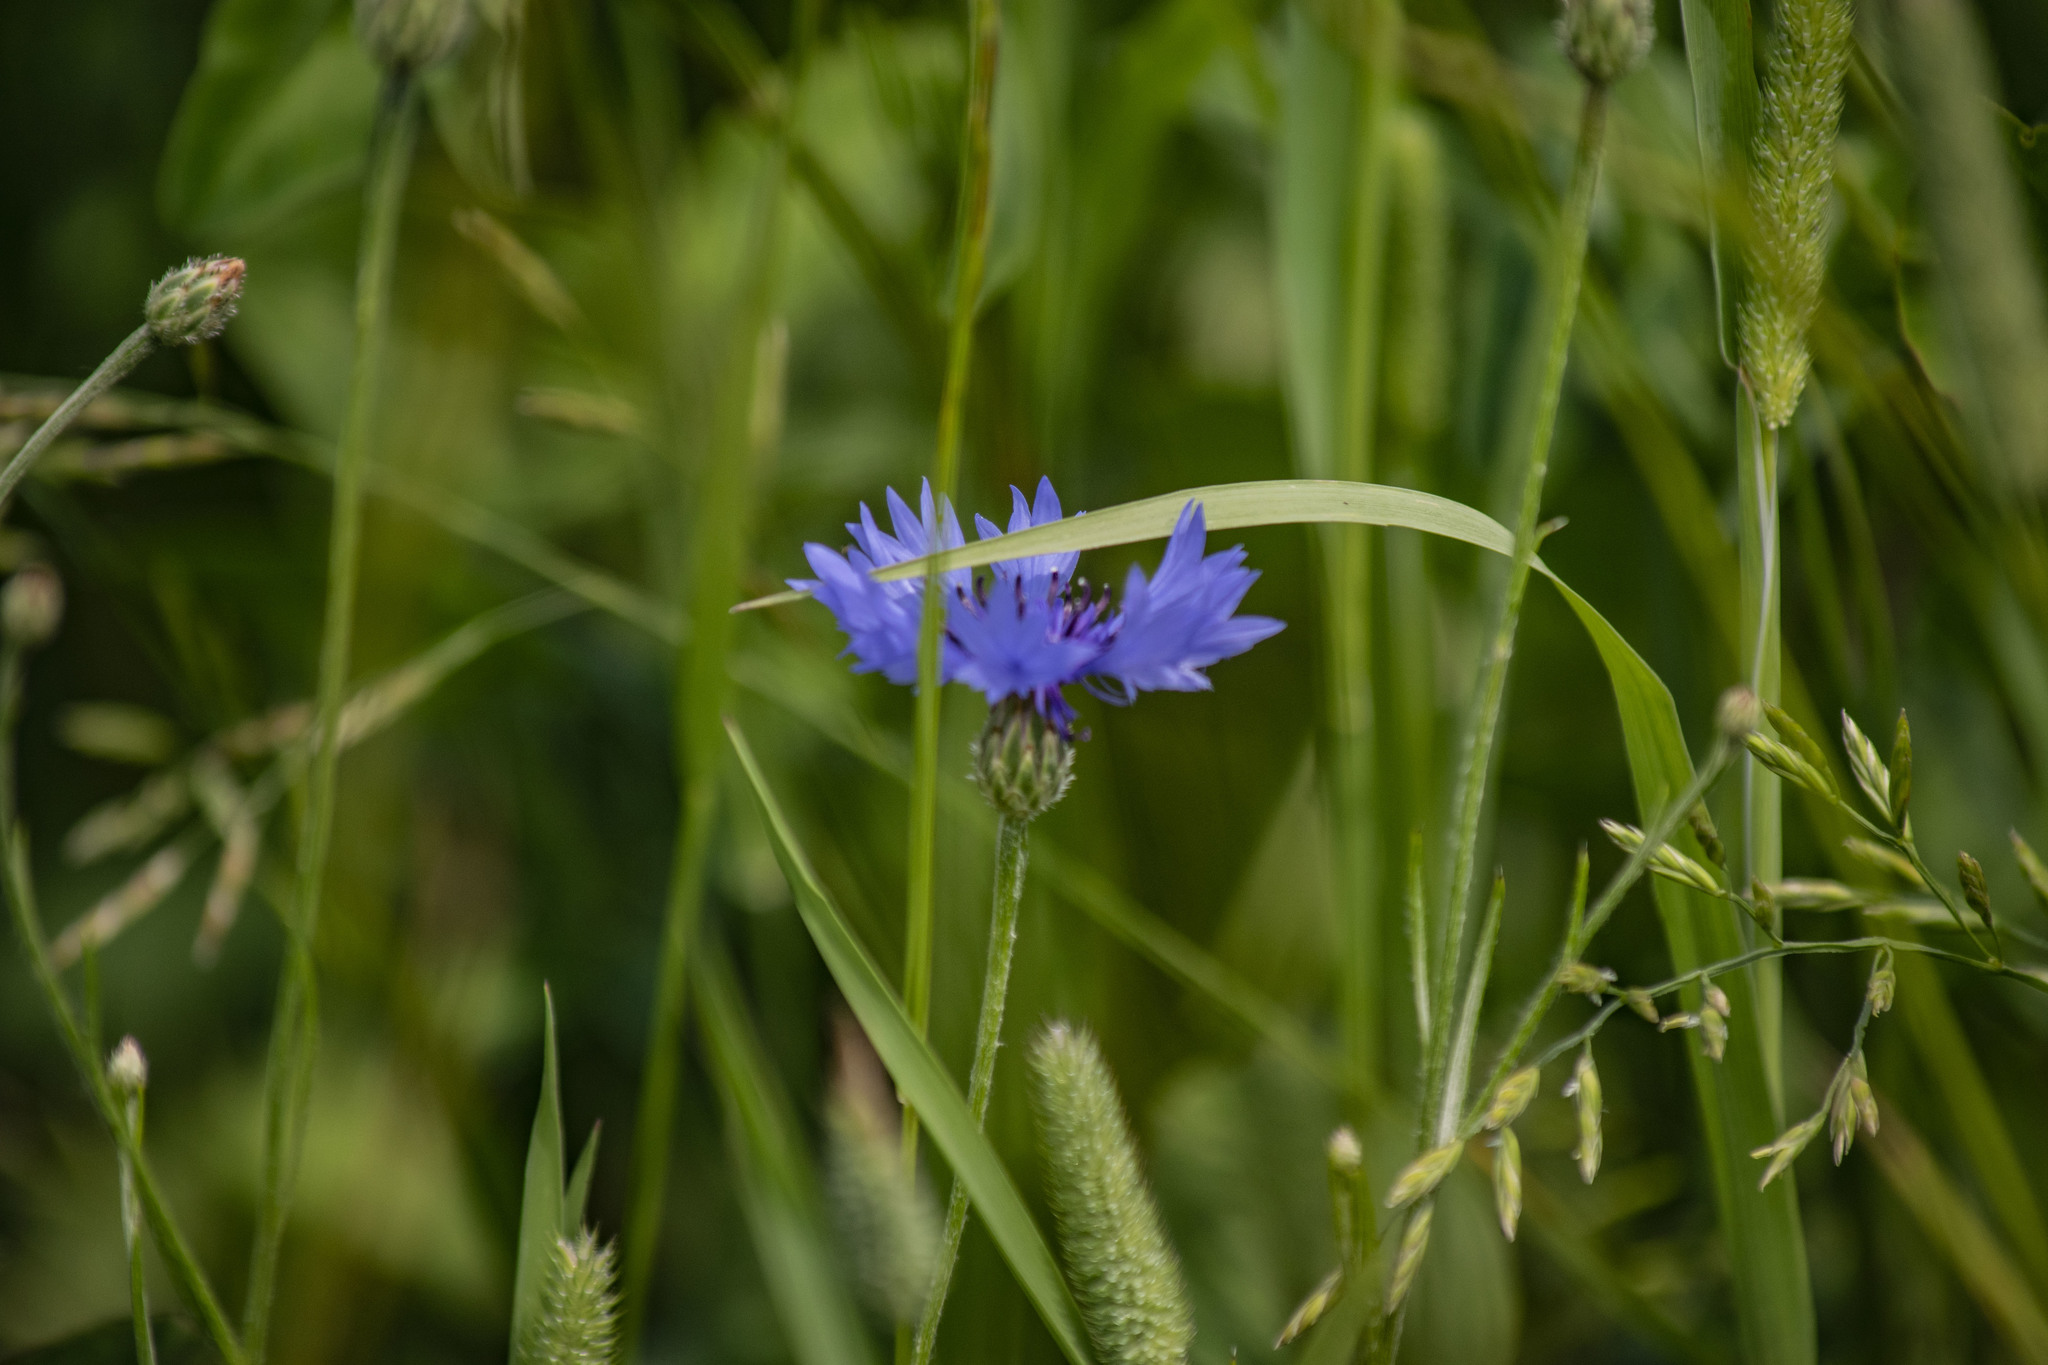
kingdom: Plantae
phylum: Tracheophyta
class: Magnoliopsida
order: Asterales
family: Asteraceae
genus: Centaurea
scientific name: Centaurea cyanus
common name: Cornflower
